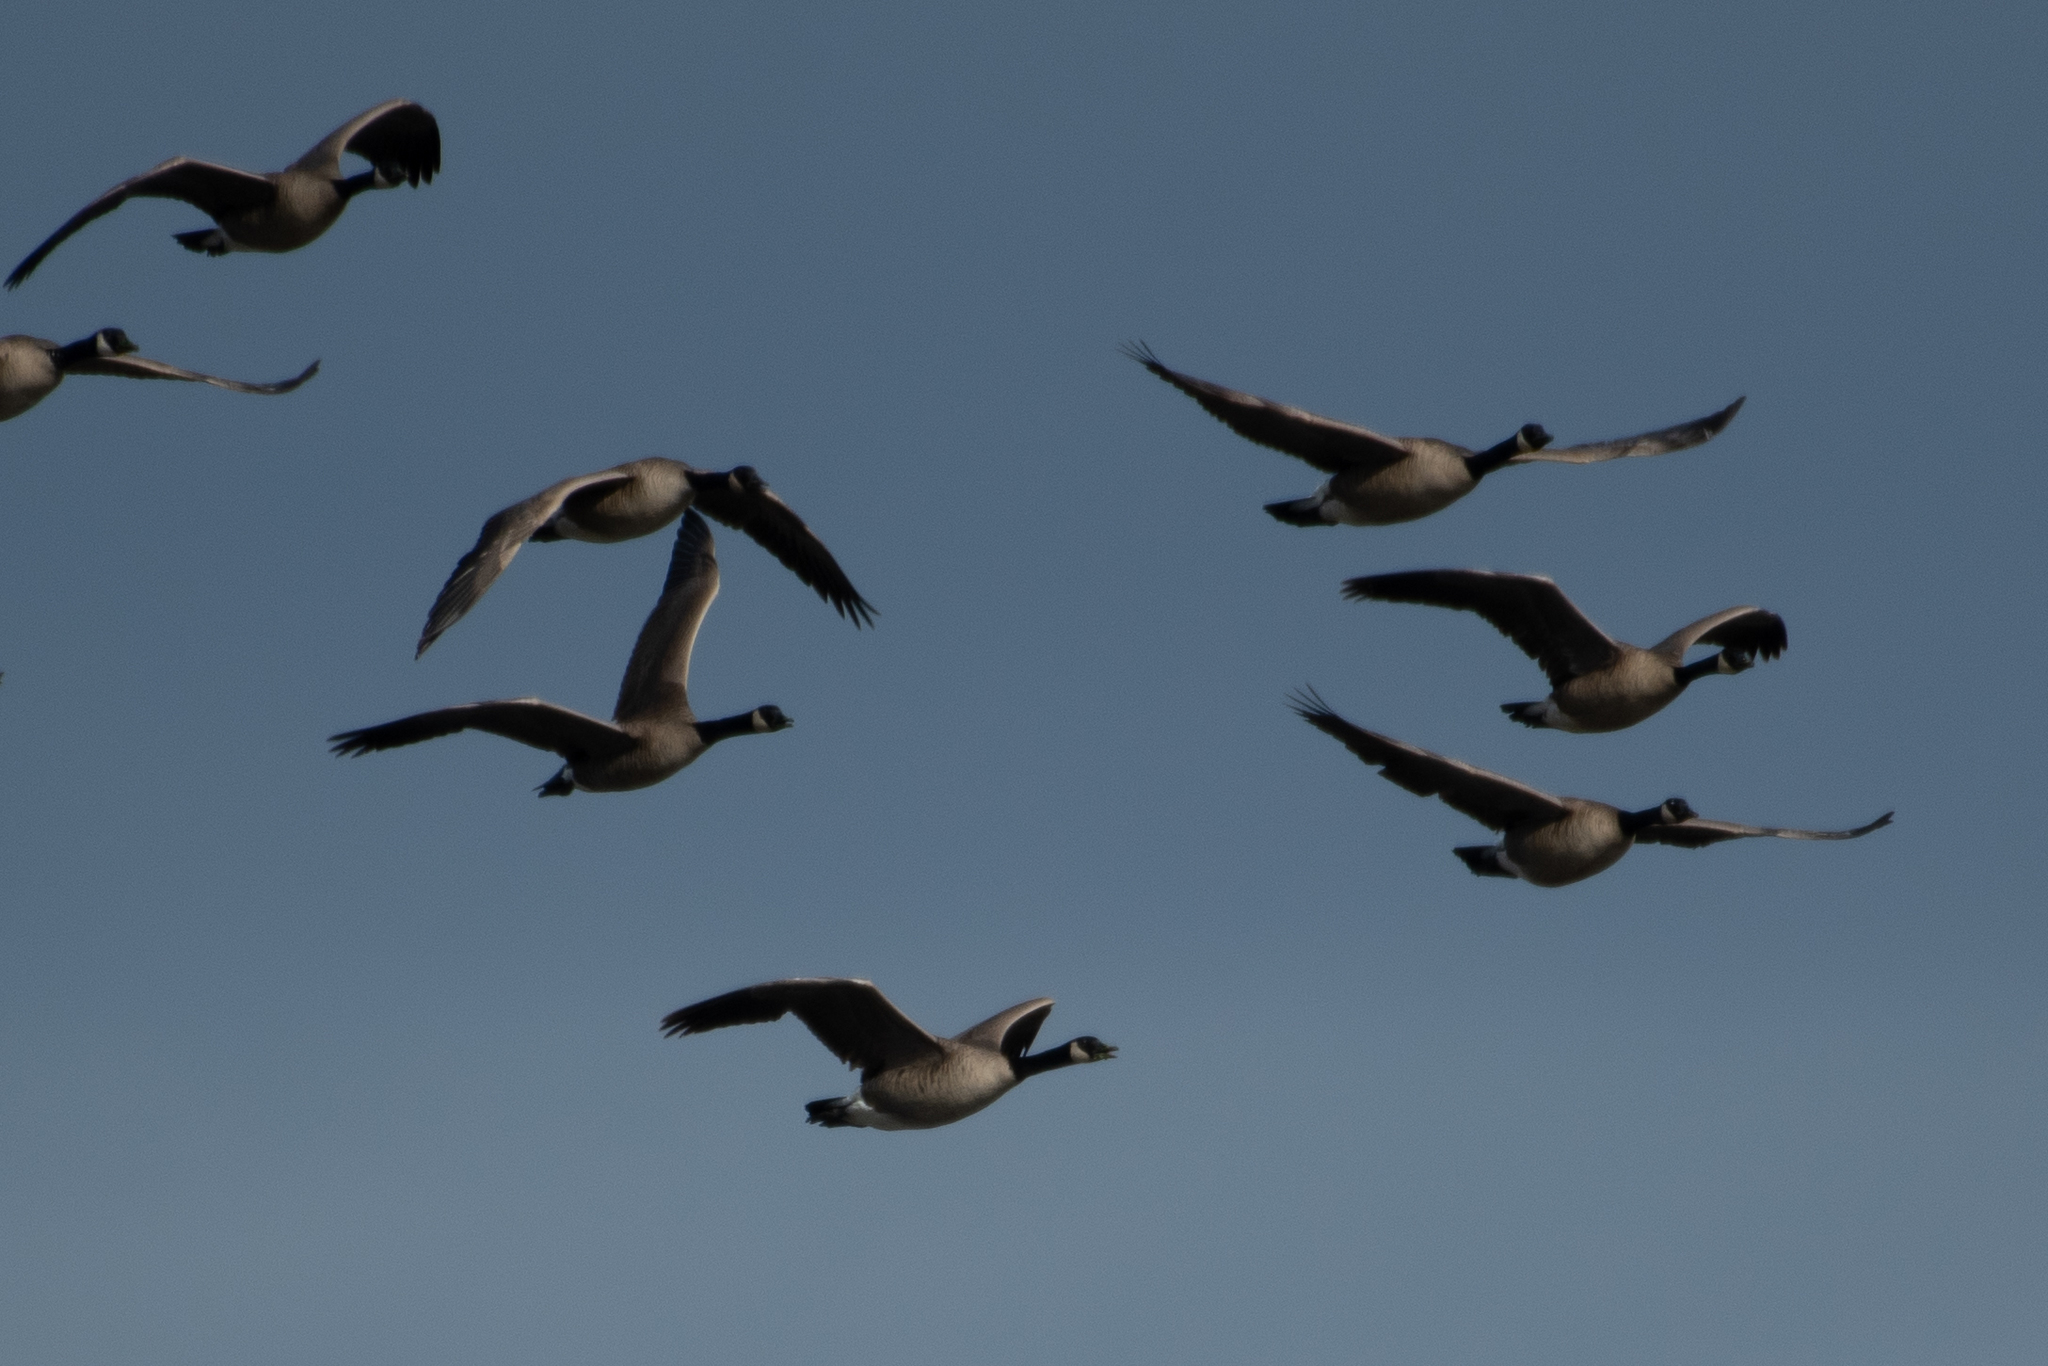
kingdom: Animalia
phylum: Chordata
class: Aves
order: Anseriformes
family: Anatidae
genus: Branta
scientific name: Branta canadensis
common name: Canada goose
